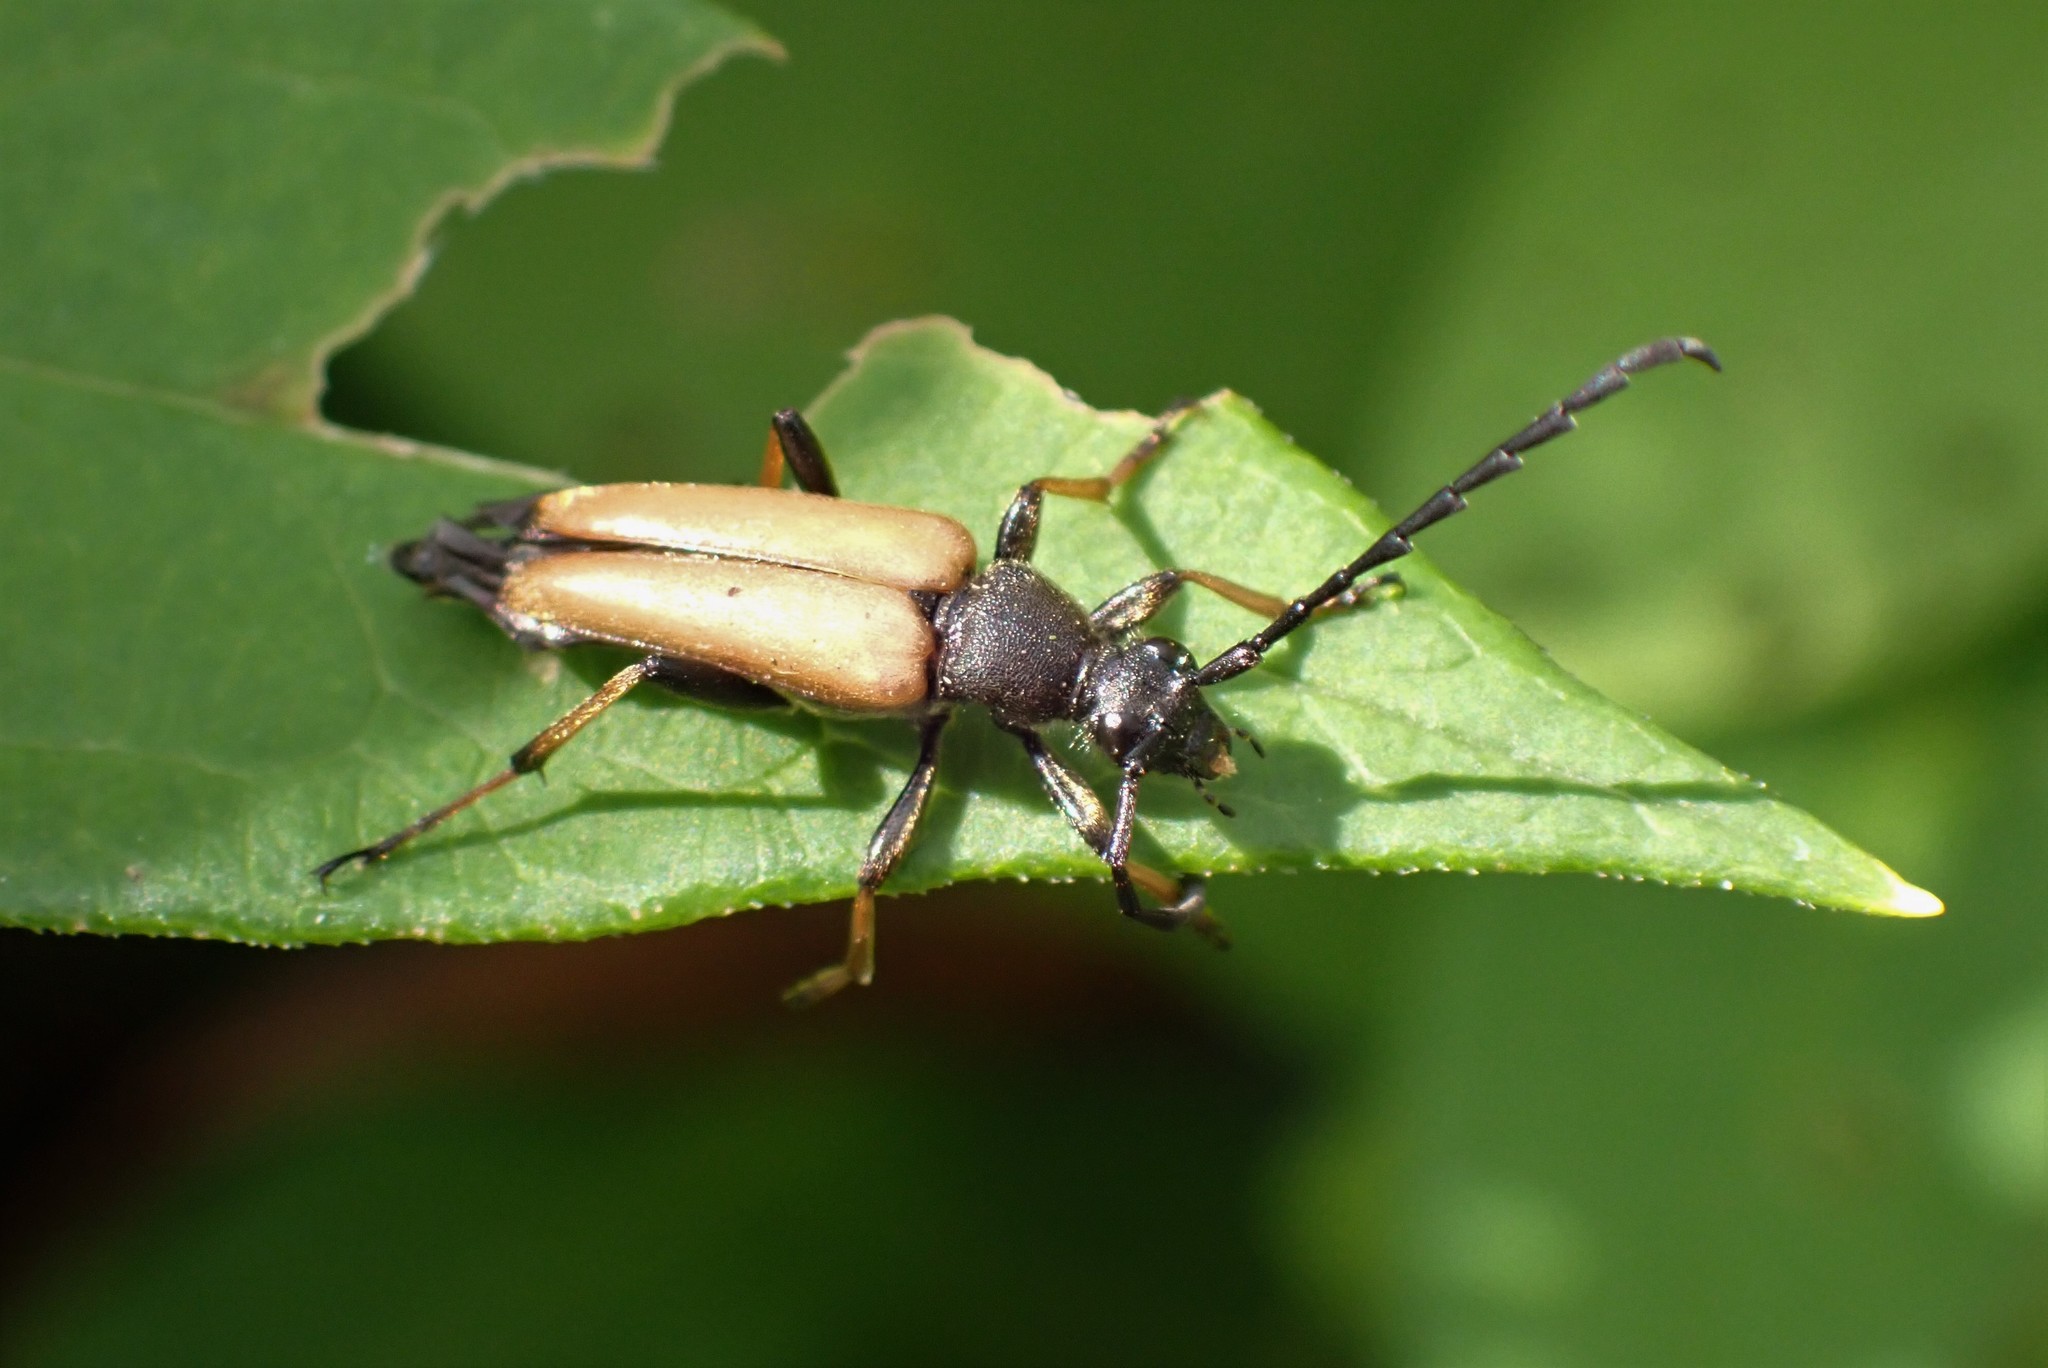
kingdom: Animalia
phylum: Arthropoda
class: Insecta
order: Coleoptera
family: Cerambycidae
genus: Stictoleptura
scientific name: Stictoleptura rubra
